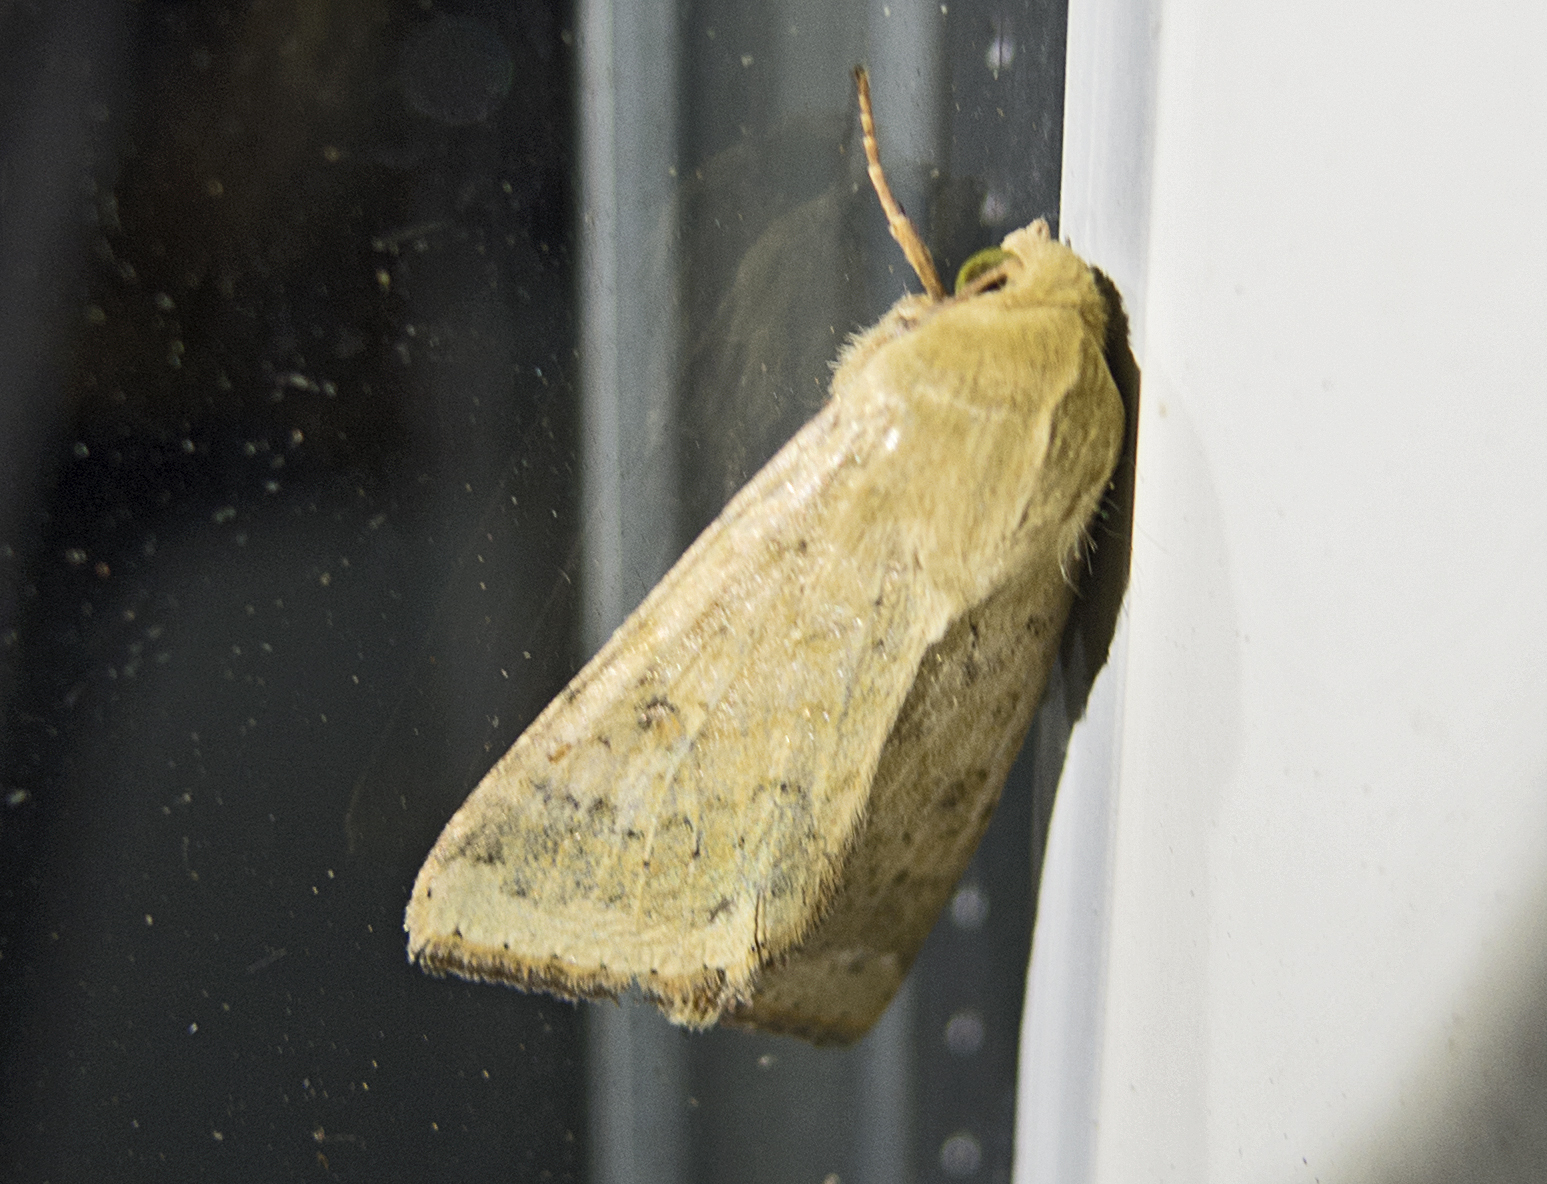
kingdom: Animalia
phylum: Arthropoda
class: Insecta
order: Lepidoptera
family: Noctuidae
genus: Helicoverpa
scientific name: Helicoverpa armigera
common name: Cotton bollworm
